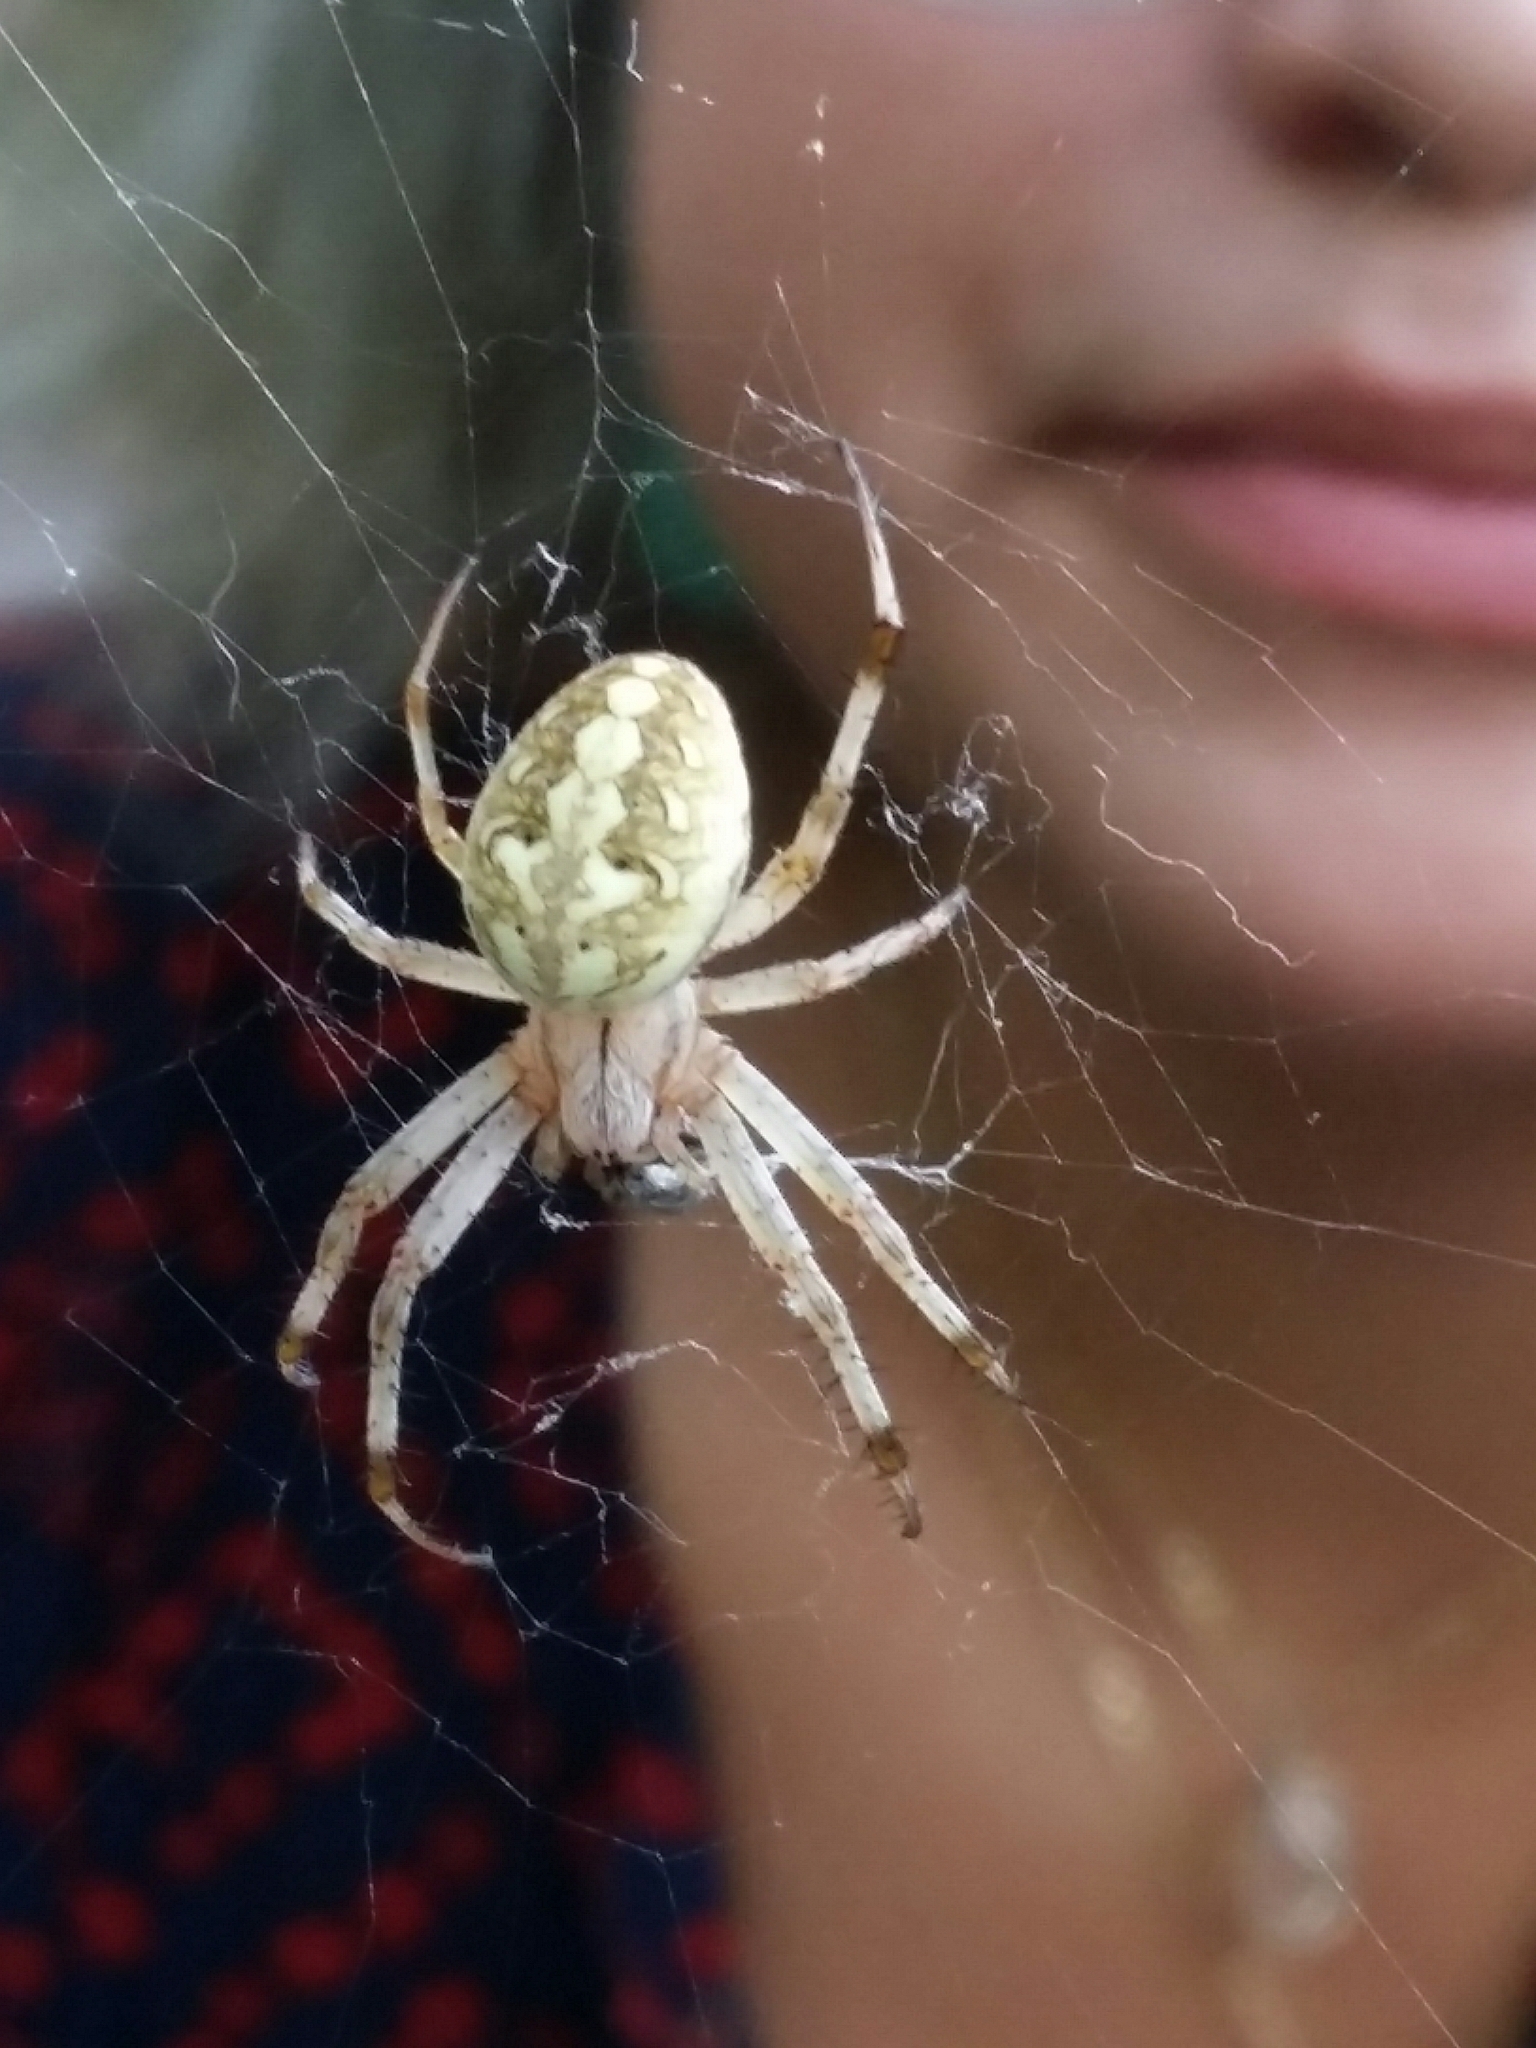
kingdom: Animalia
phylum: Arthropoda
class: Arachnida
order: Araneae
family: Araneidae
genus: Neoscona
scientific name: Neoscona oaxacensis
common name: Orb weavers
